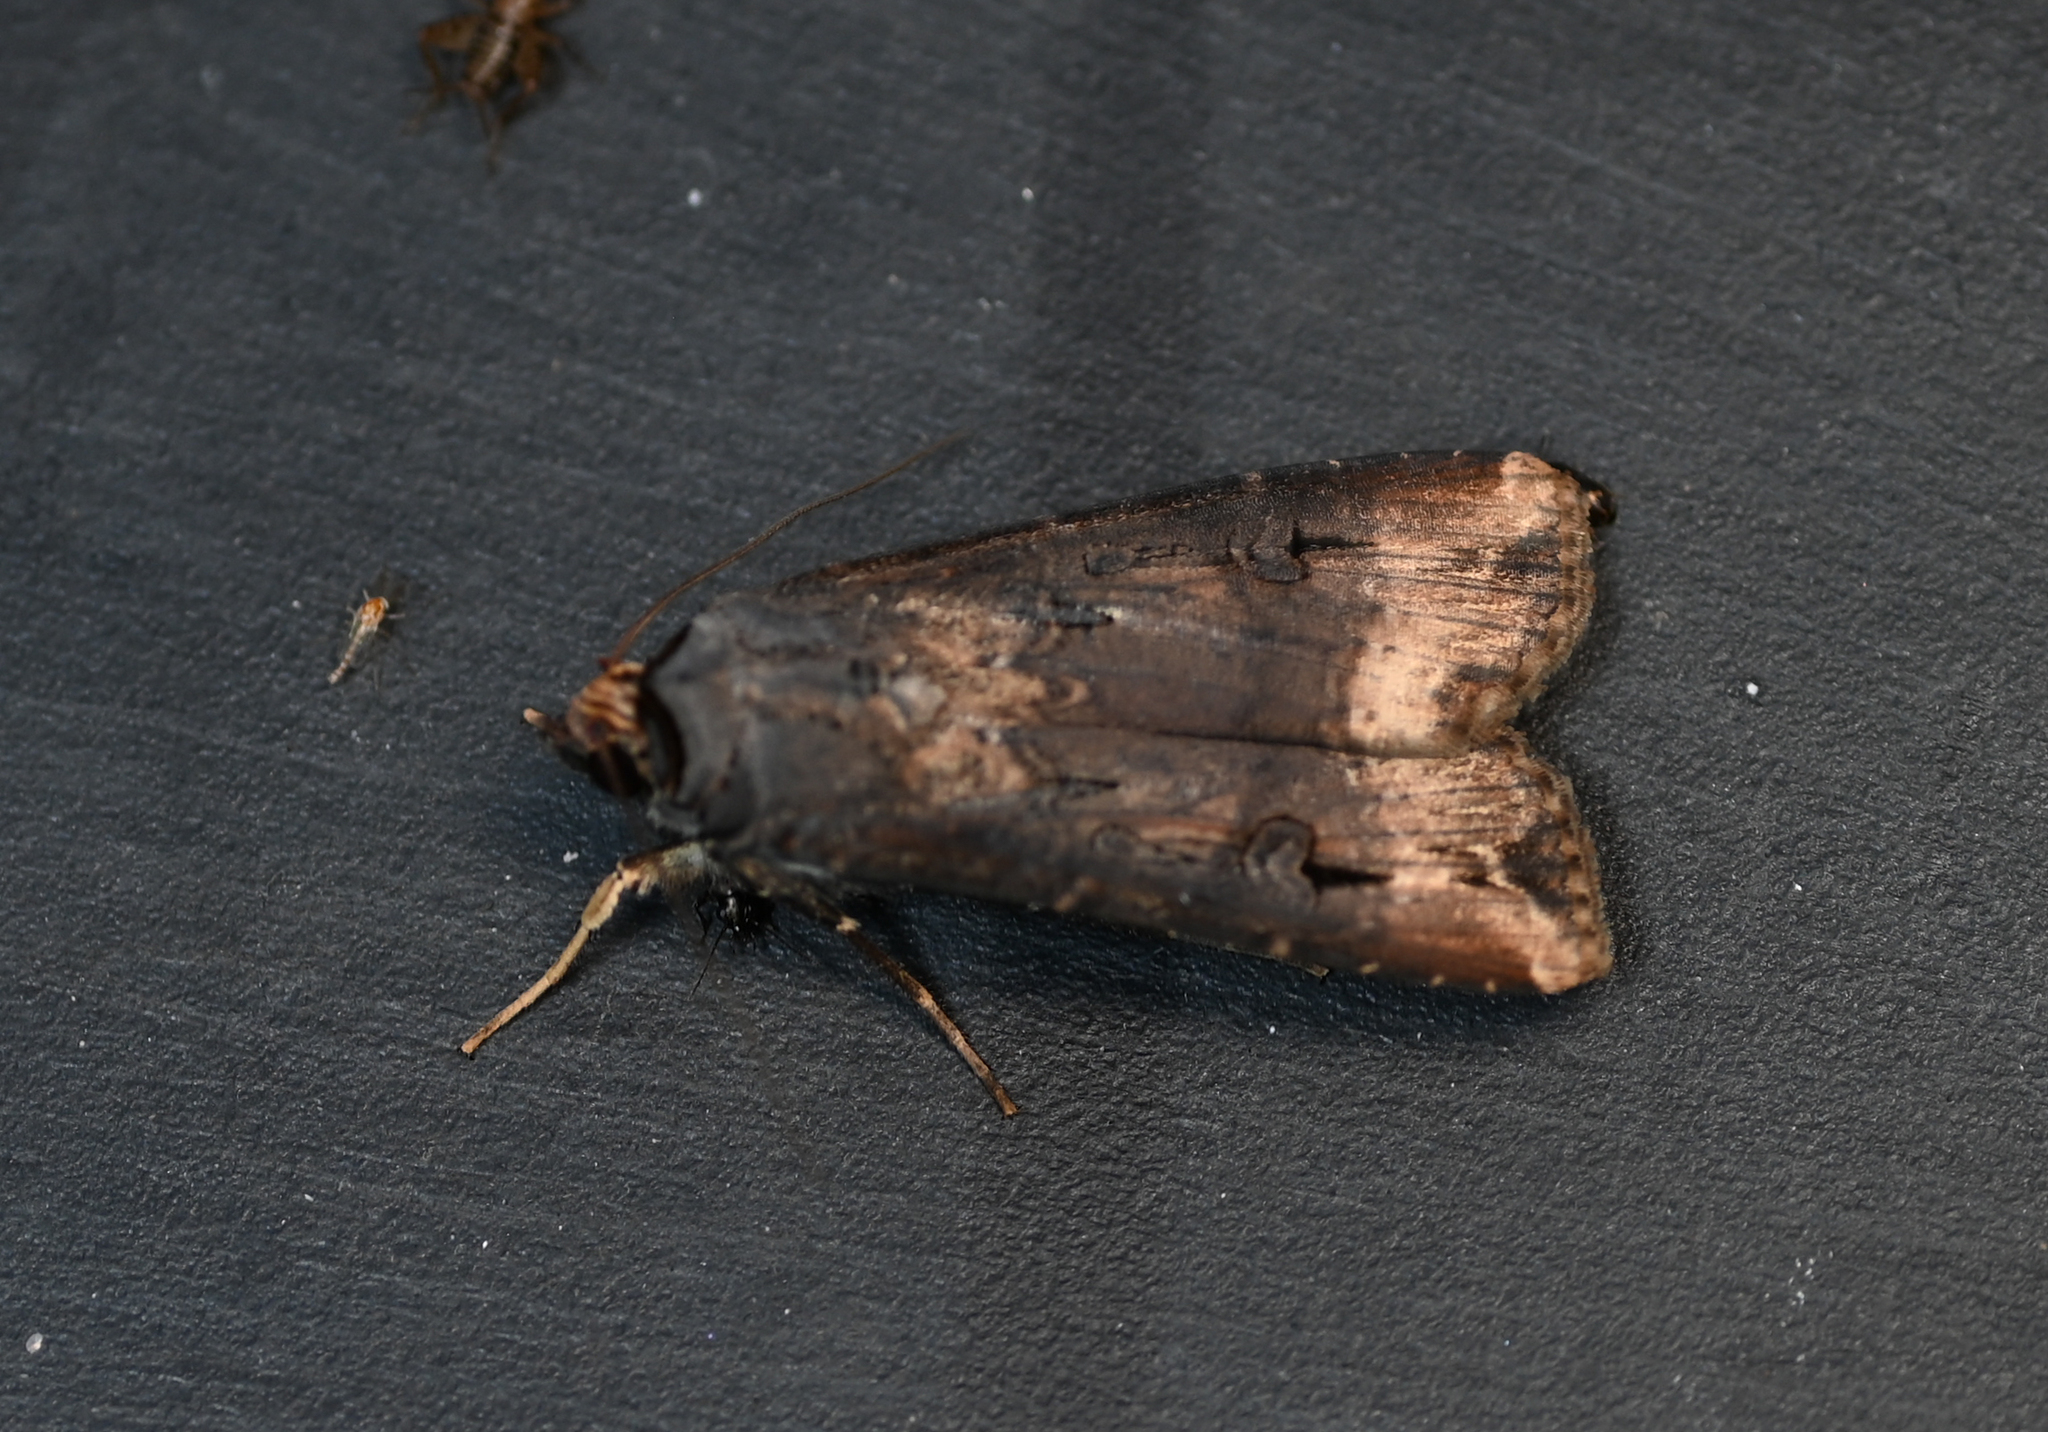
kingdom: Animalia
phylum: Arthropoda
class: Insecta
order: Lepidoptera
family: Noctuidae
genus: Agrotis
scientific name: Agrotis ipsilon
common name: Dark sword-grass
